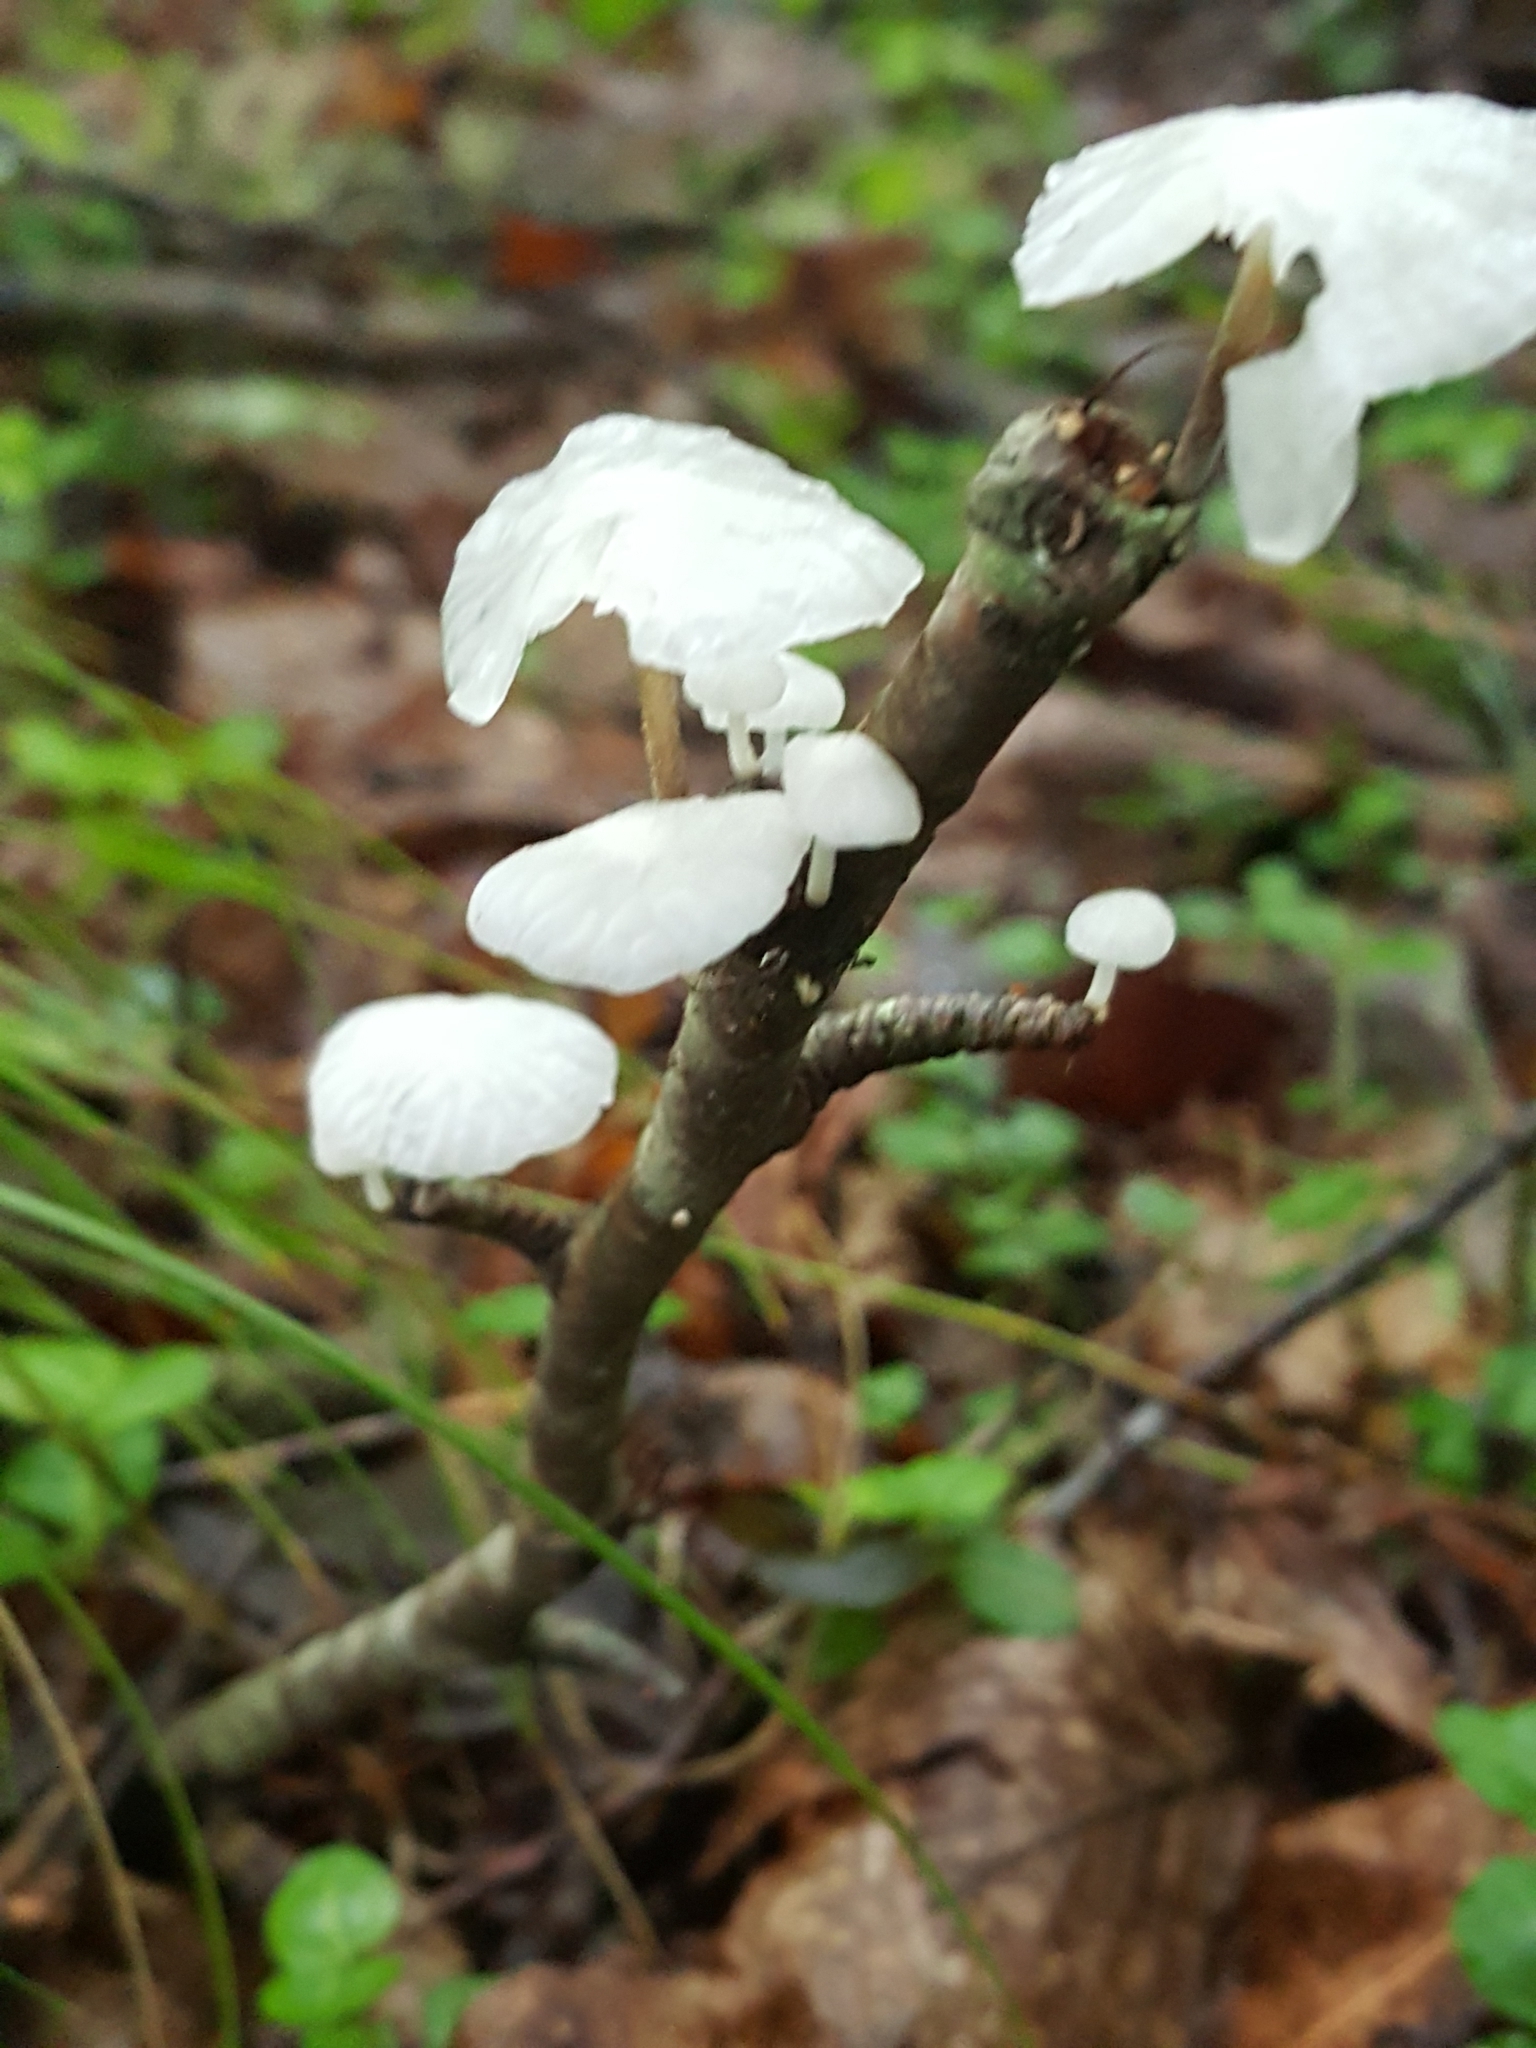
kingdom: Fungi
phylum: Basidiomycota
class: Agaricomycetes
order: Agaricales
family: Omphalotaceae
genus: Marasmiellus
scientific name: Marasmiellus candidus
